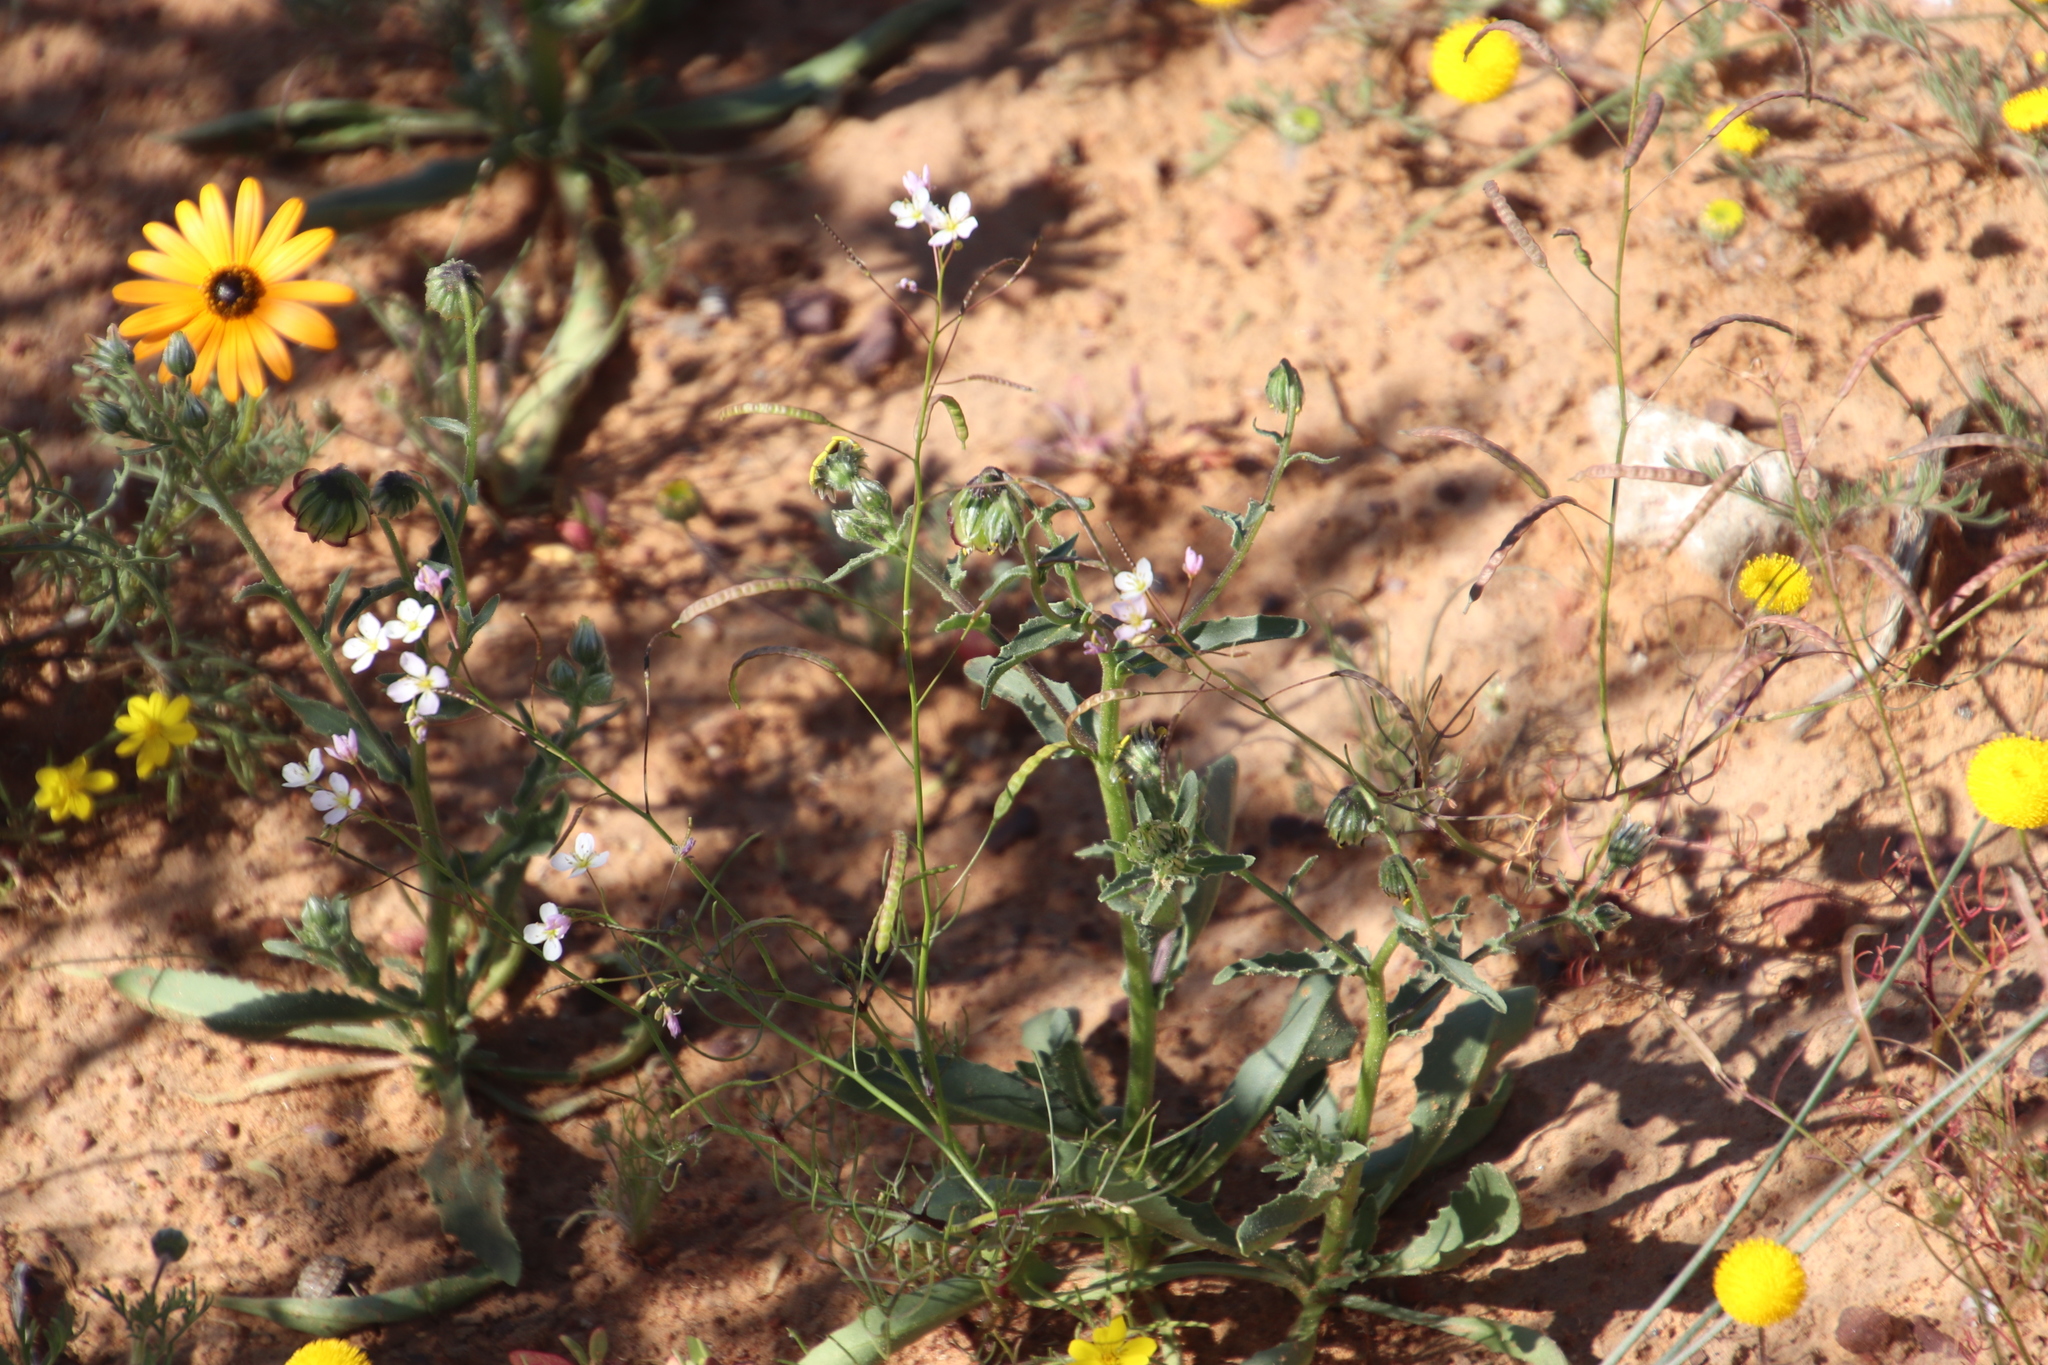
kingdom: Plantae
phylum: Tracheophyta
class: Magnoliopsida
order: Brassicales
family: Brassicaceae
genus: Heliophila
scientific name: Heliophila variabilis
